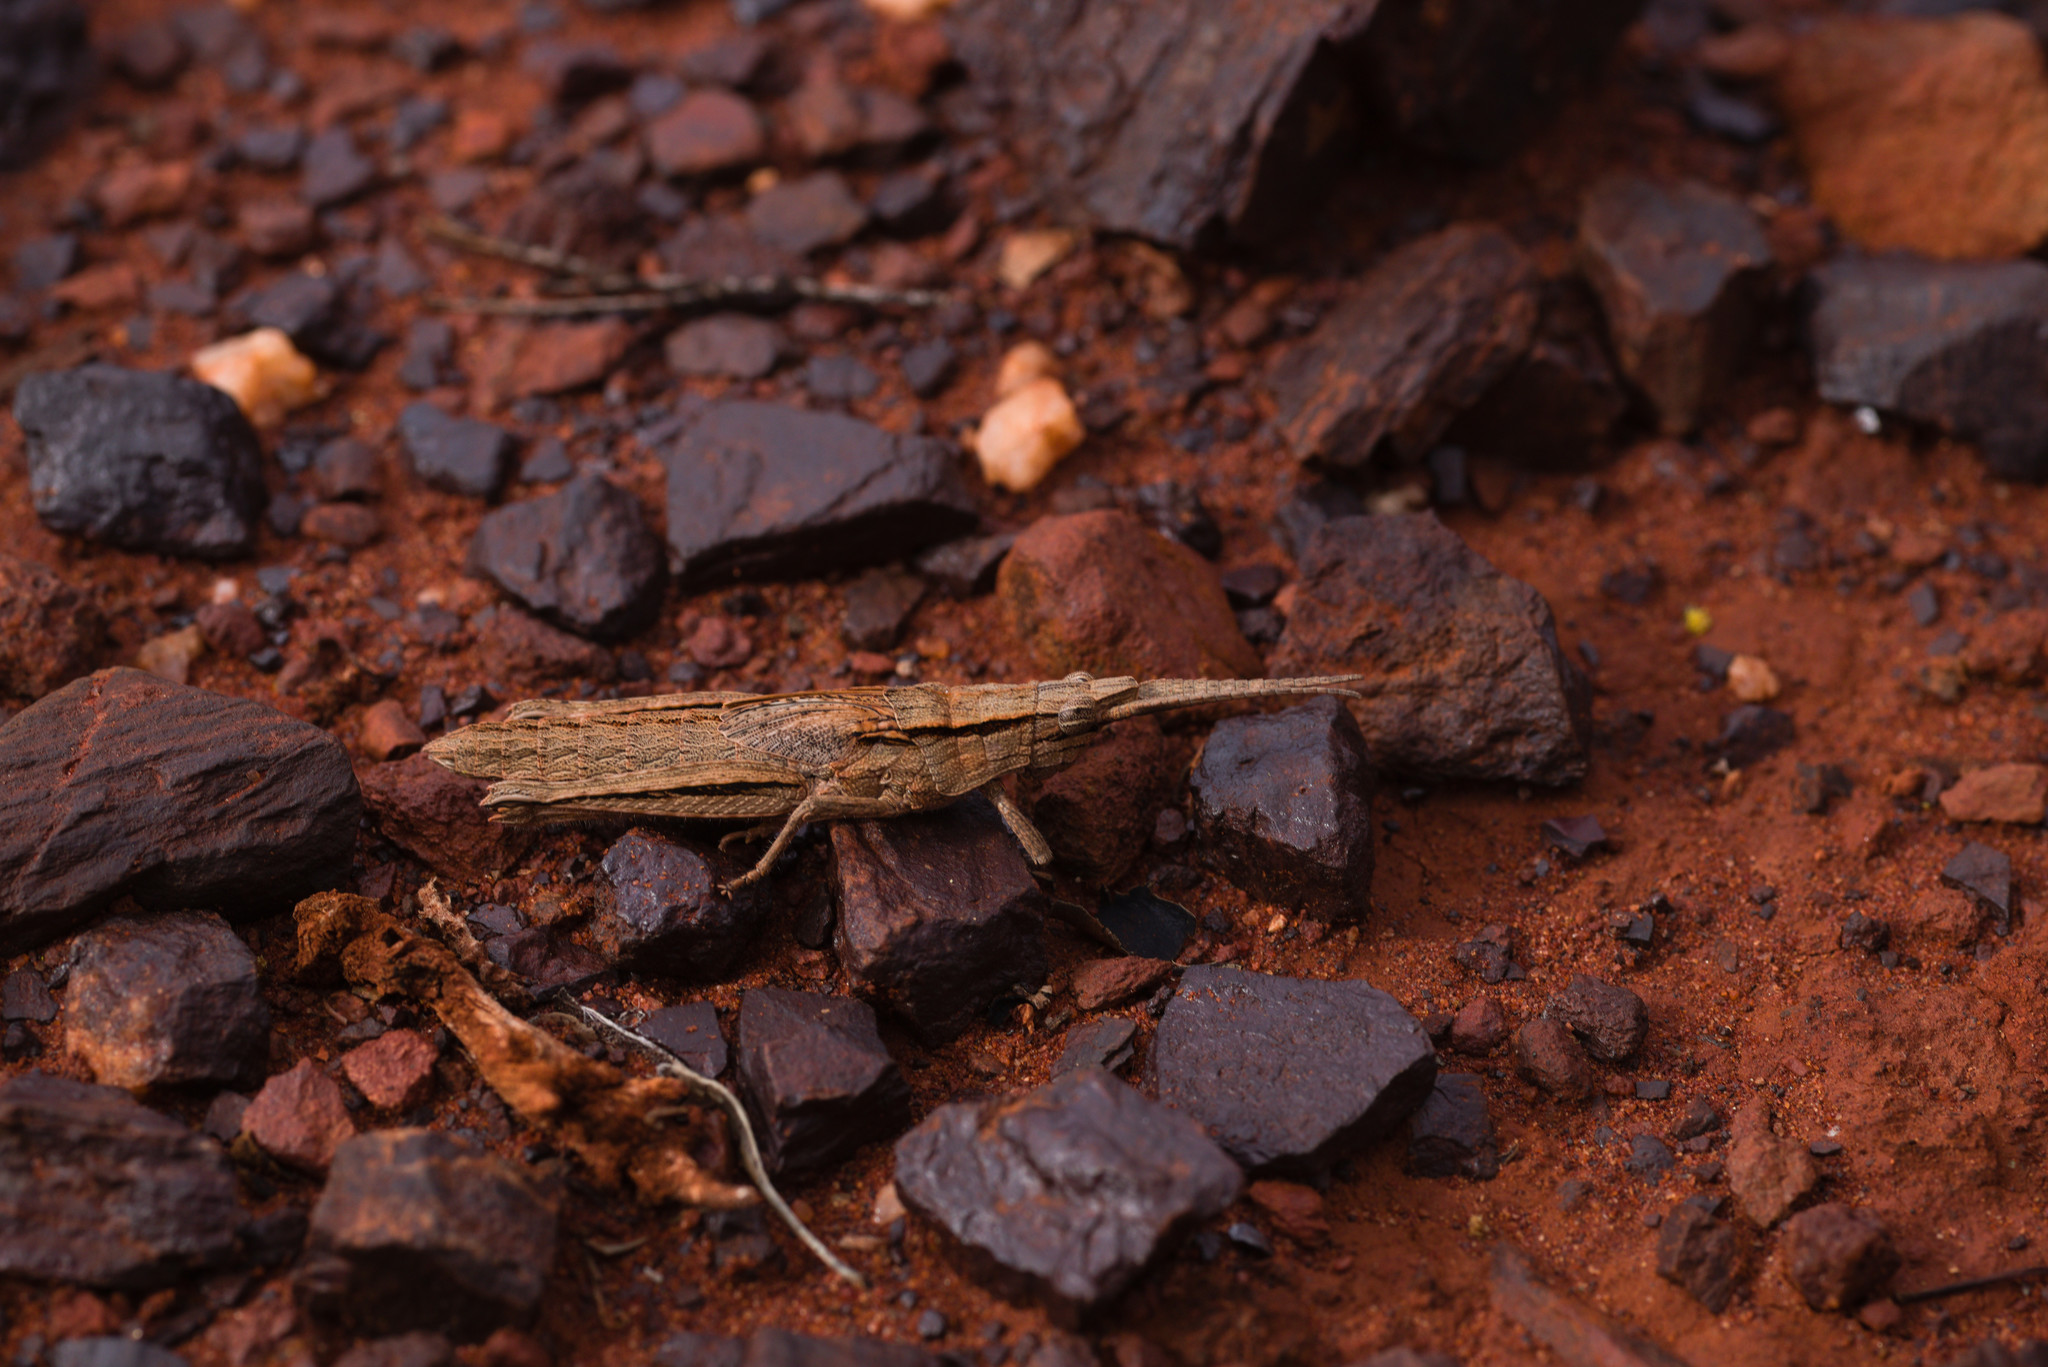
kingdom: Animalia
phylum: Arthropoda
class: Insecta
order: Orthoptera
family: Acrididae
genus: Coryphistes
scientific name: Coryphistes ruricola
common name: Bark-mimicking grasshopper
